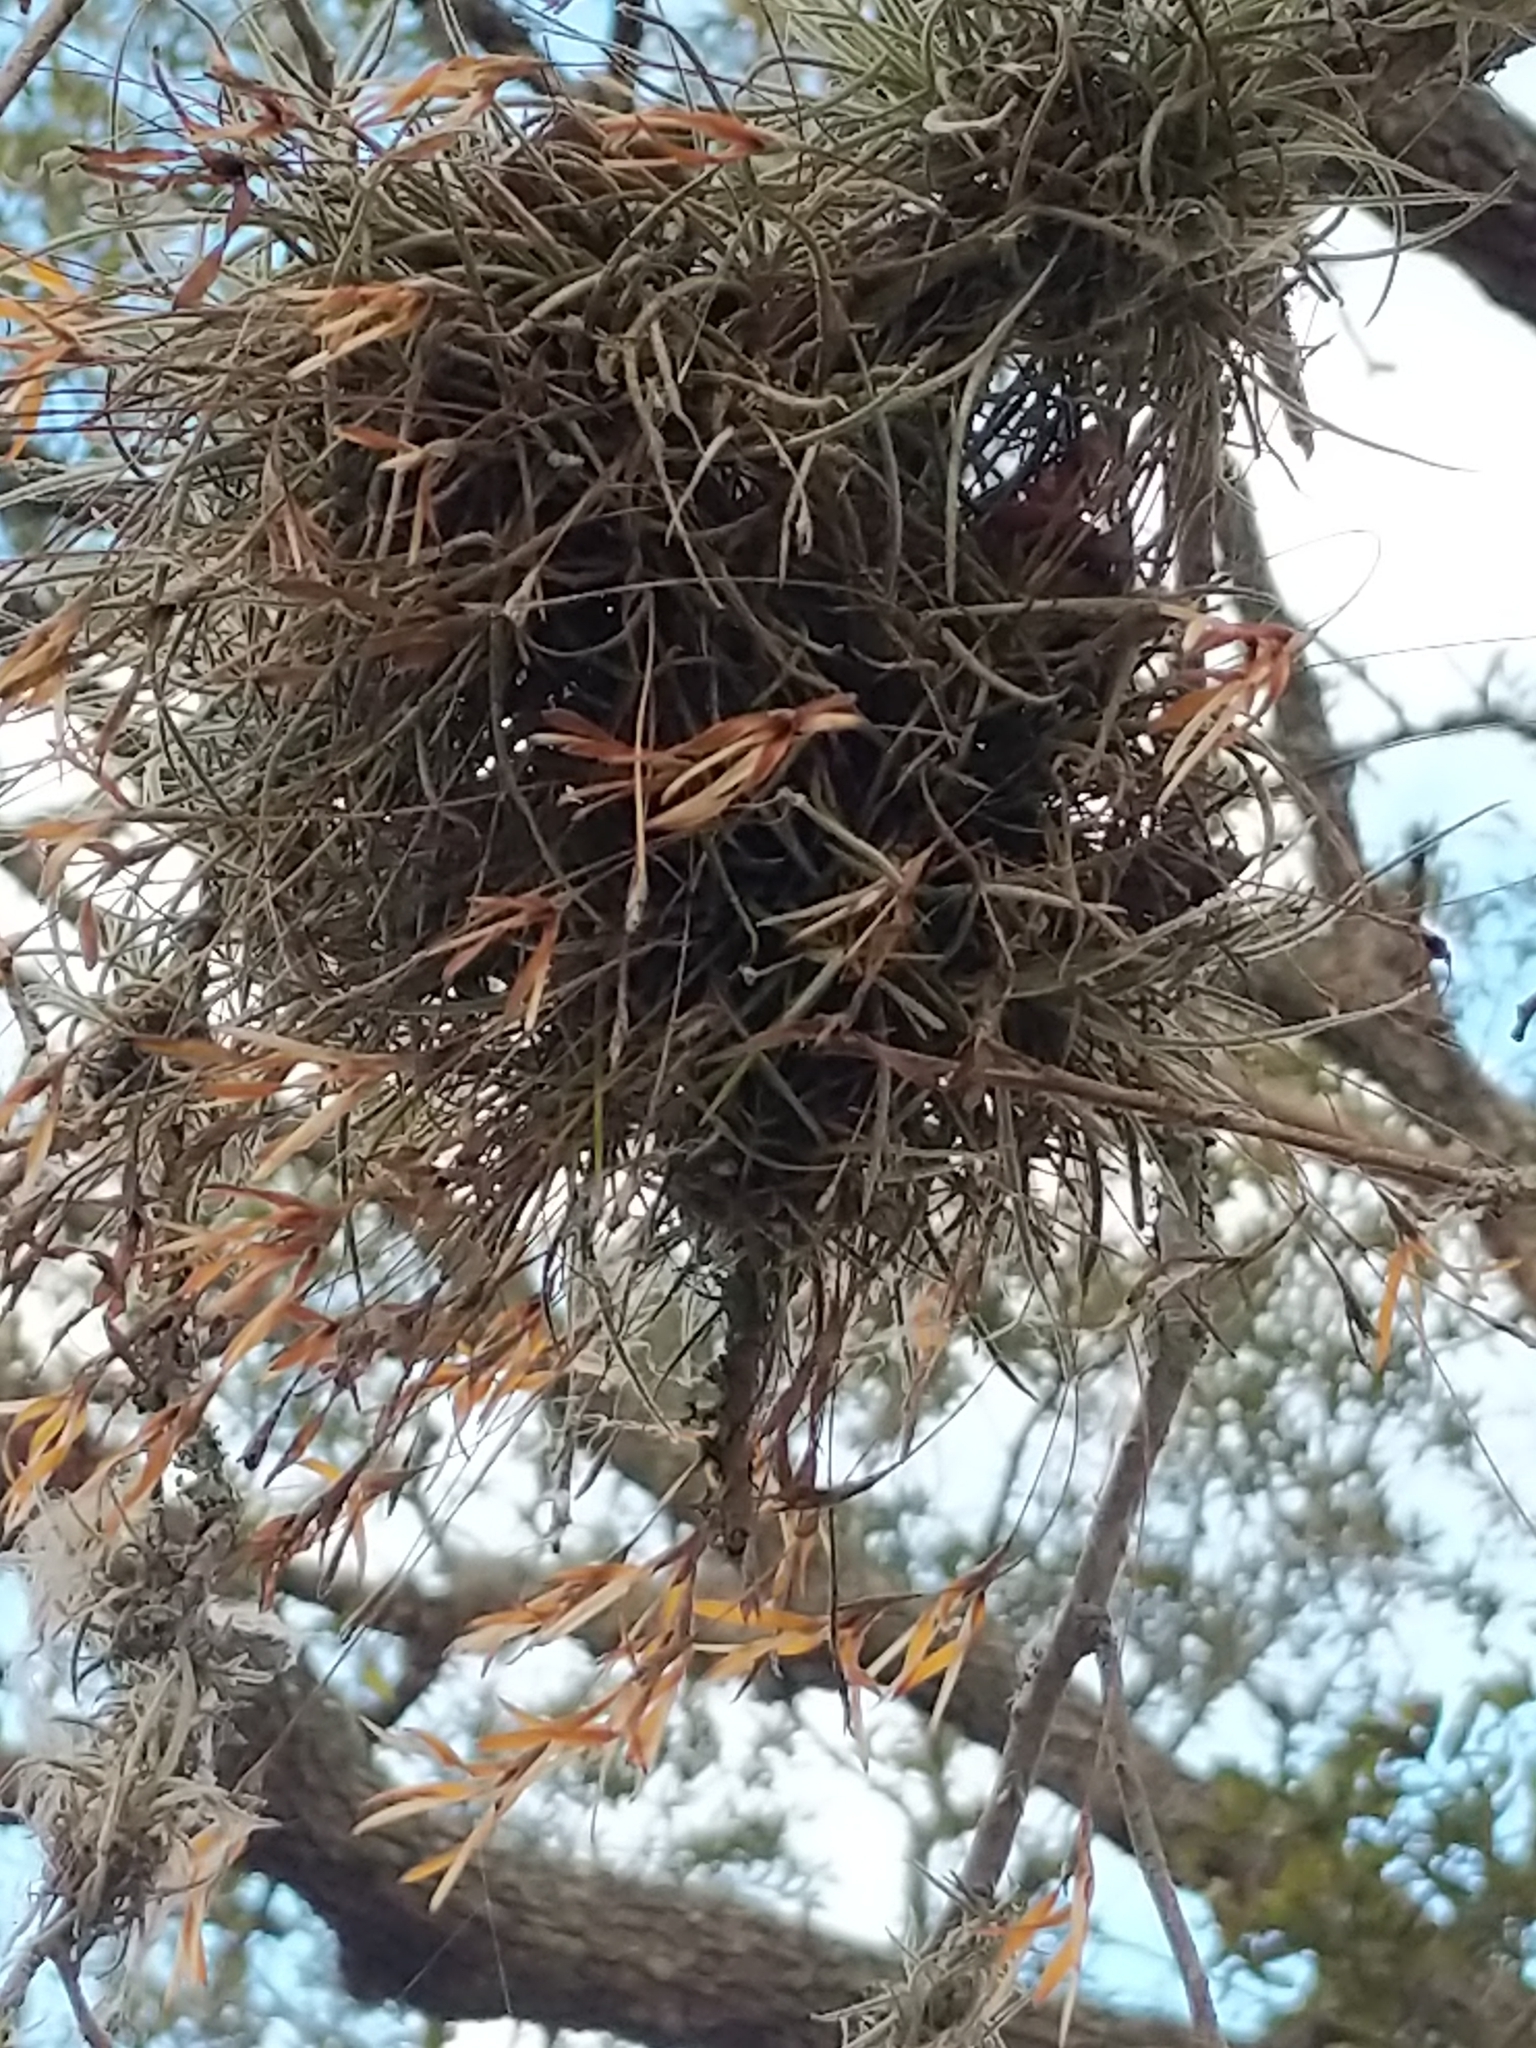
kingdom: Plantae
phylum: Tracheophyta
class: Liliopsida
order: Poales
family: Bromeliaceae
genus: Tillandsia
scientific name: Tillandsia recurvata
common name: Small ballmoss
